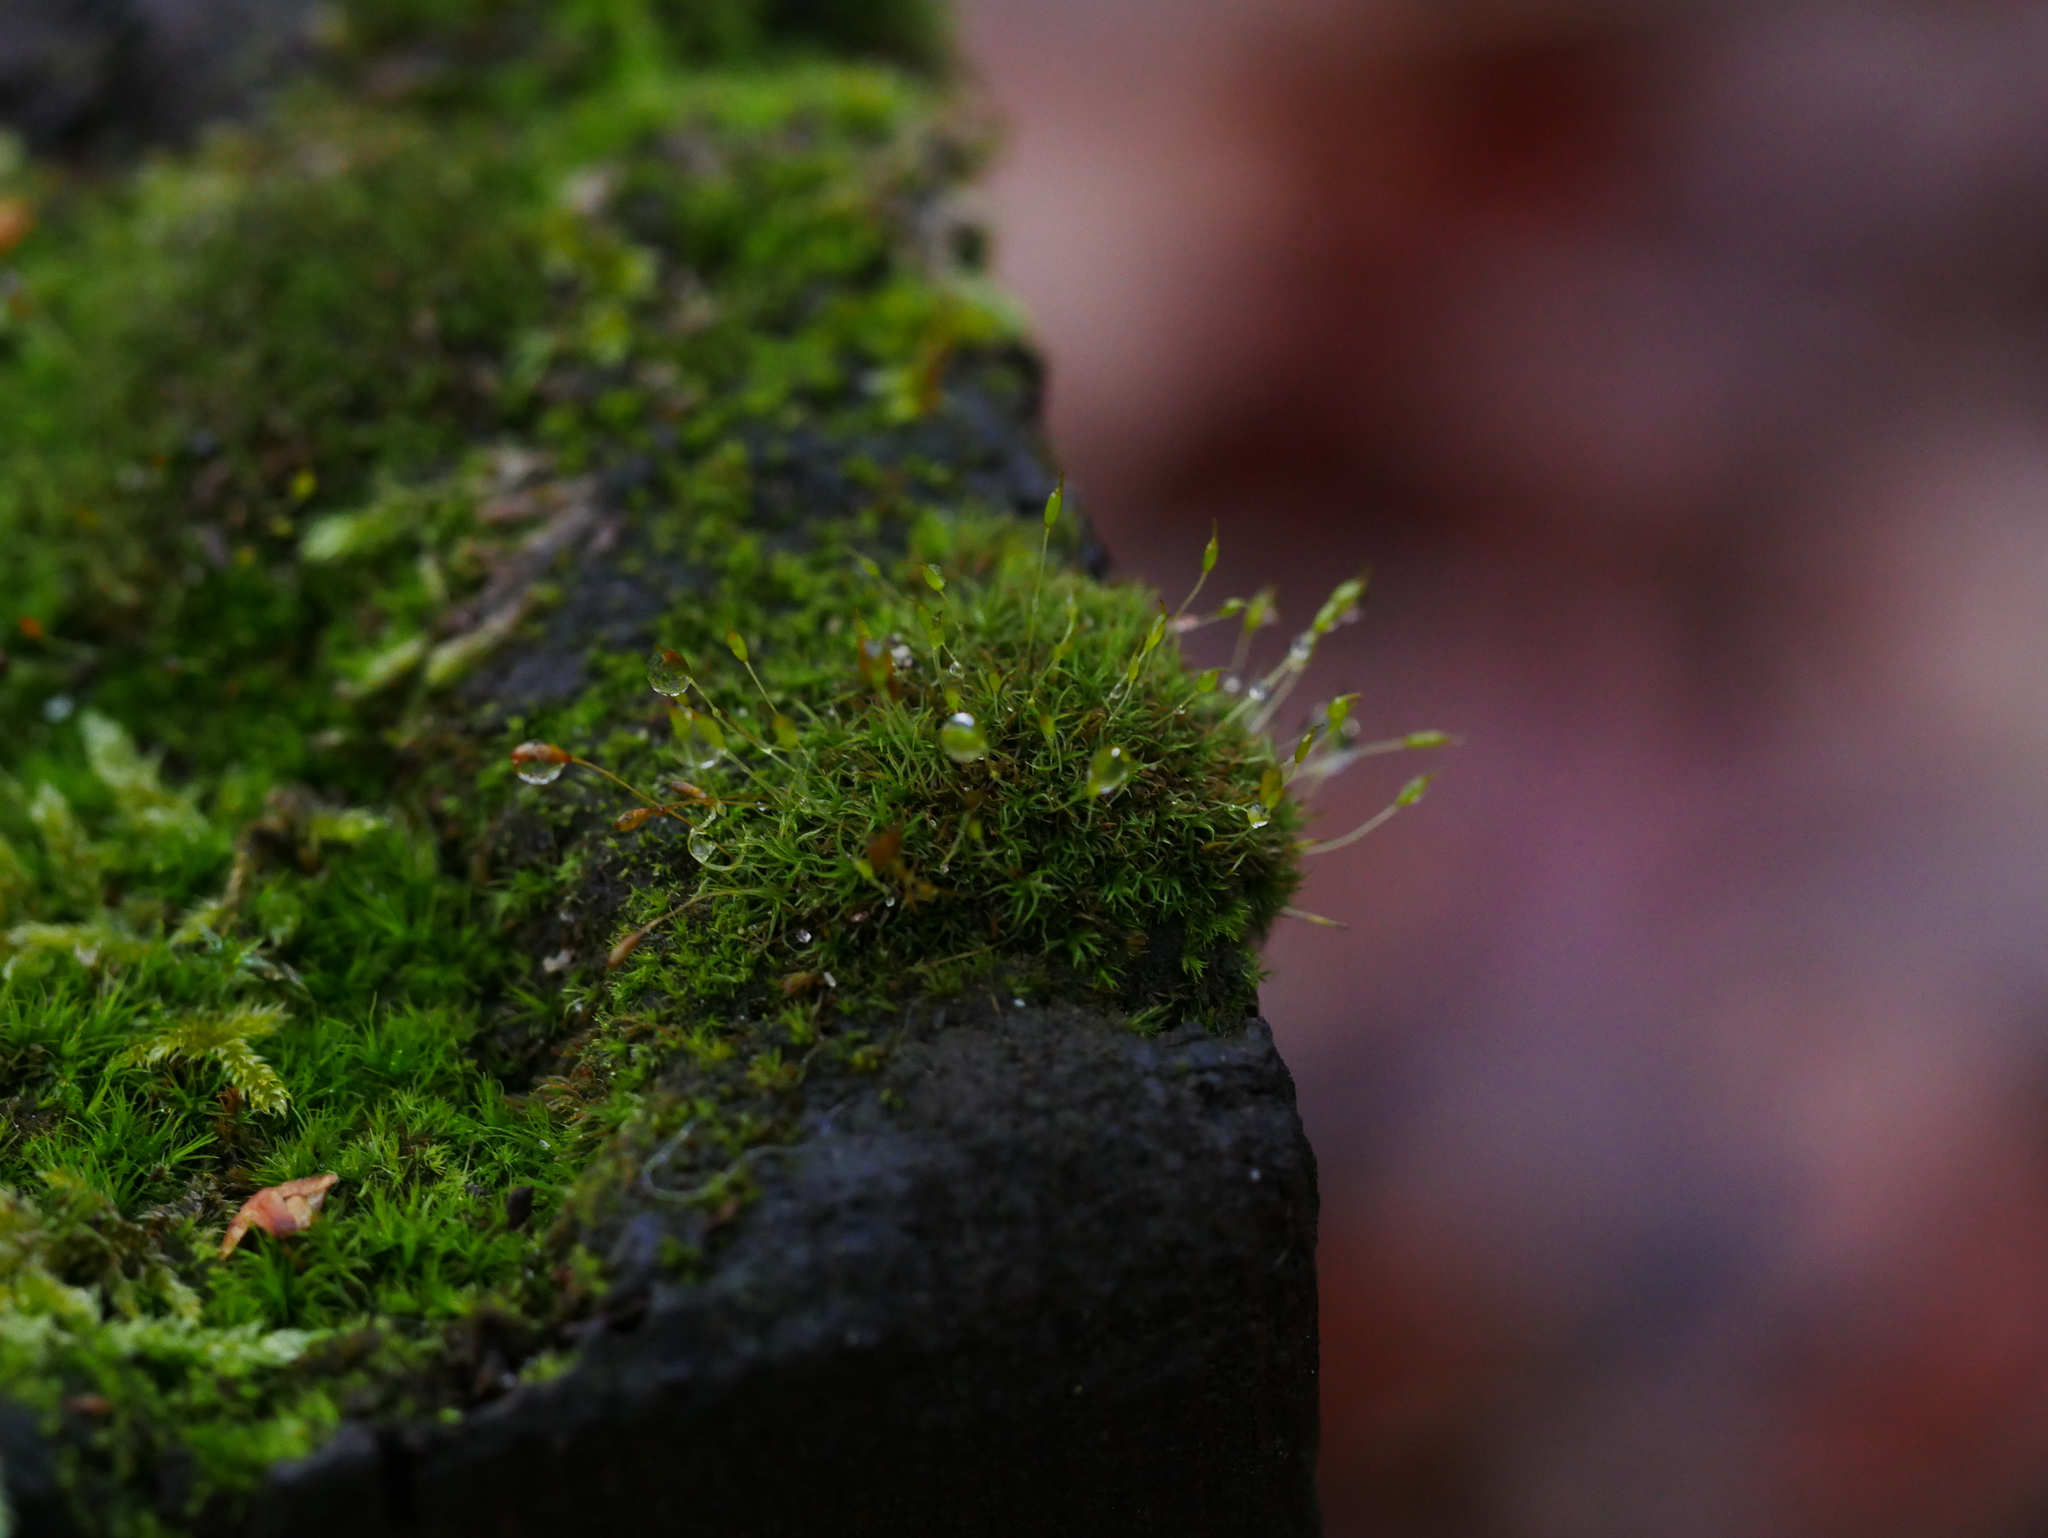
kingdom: Plantae
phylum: Bryophyta
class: Bryopsida
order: Dicranales
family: Rhabdoweisiaceae
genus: Dicranoweisia
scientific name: Dicranoweisia cirrata
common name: Common pincushion
